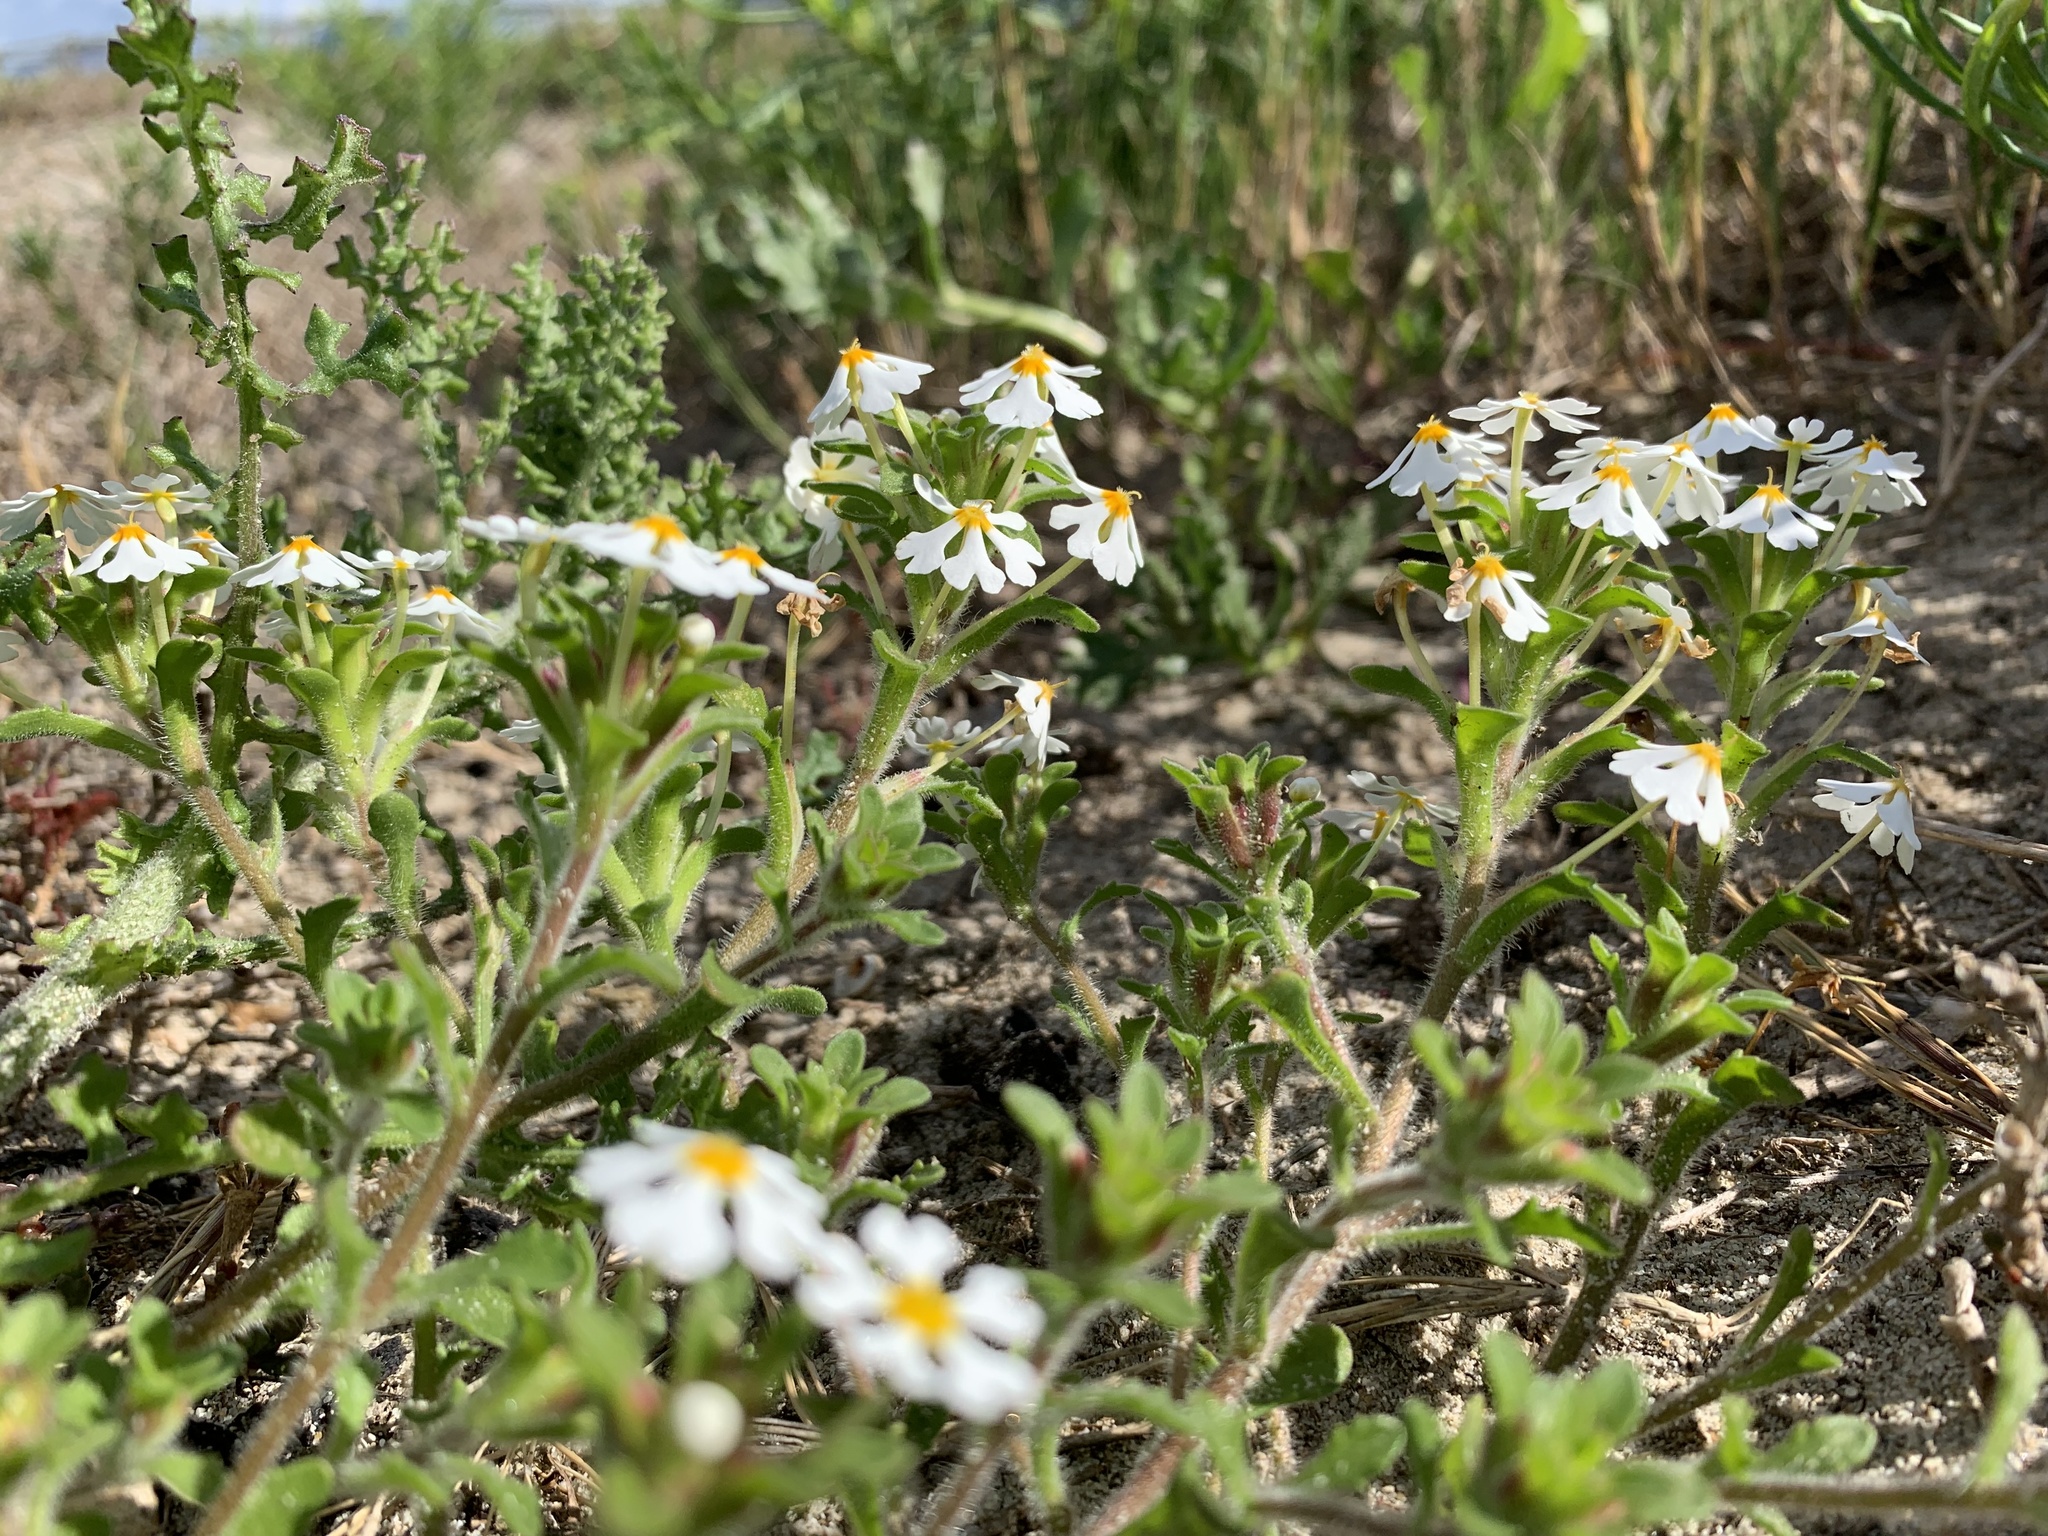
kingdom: Plantae
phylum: Tracheophyta
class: Magnoliopsida
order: Lamiales
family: Scrophulariaceae
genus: Zaluzianskya
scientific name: Zaluzianskya villosa
